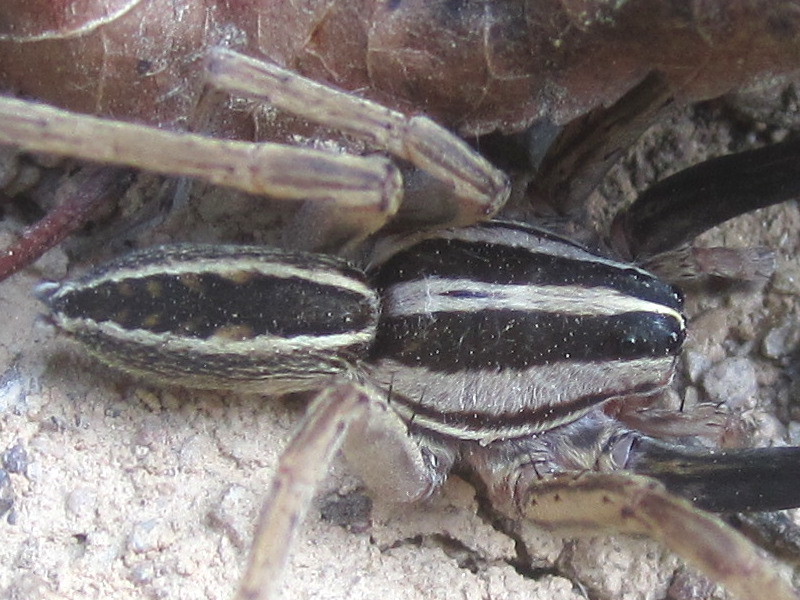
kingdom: Animalia
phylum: Arthropoda
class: Arachnida
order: Araneae
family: Lycosidae
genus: Rabidosa
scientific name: Rabidosa rabida
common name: Rabid wolf spider
